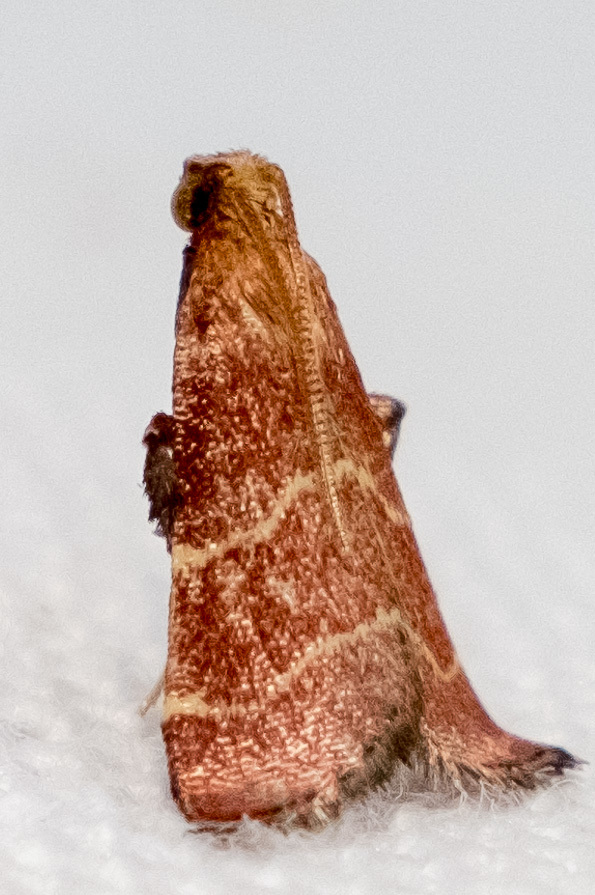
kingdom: Animalia
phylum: Arthropoda
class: Insecta
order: Lepidoptera
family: Pyralidae
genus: Arta
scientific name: Arta statalis
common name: Posturing arta moth
